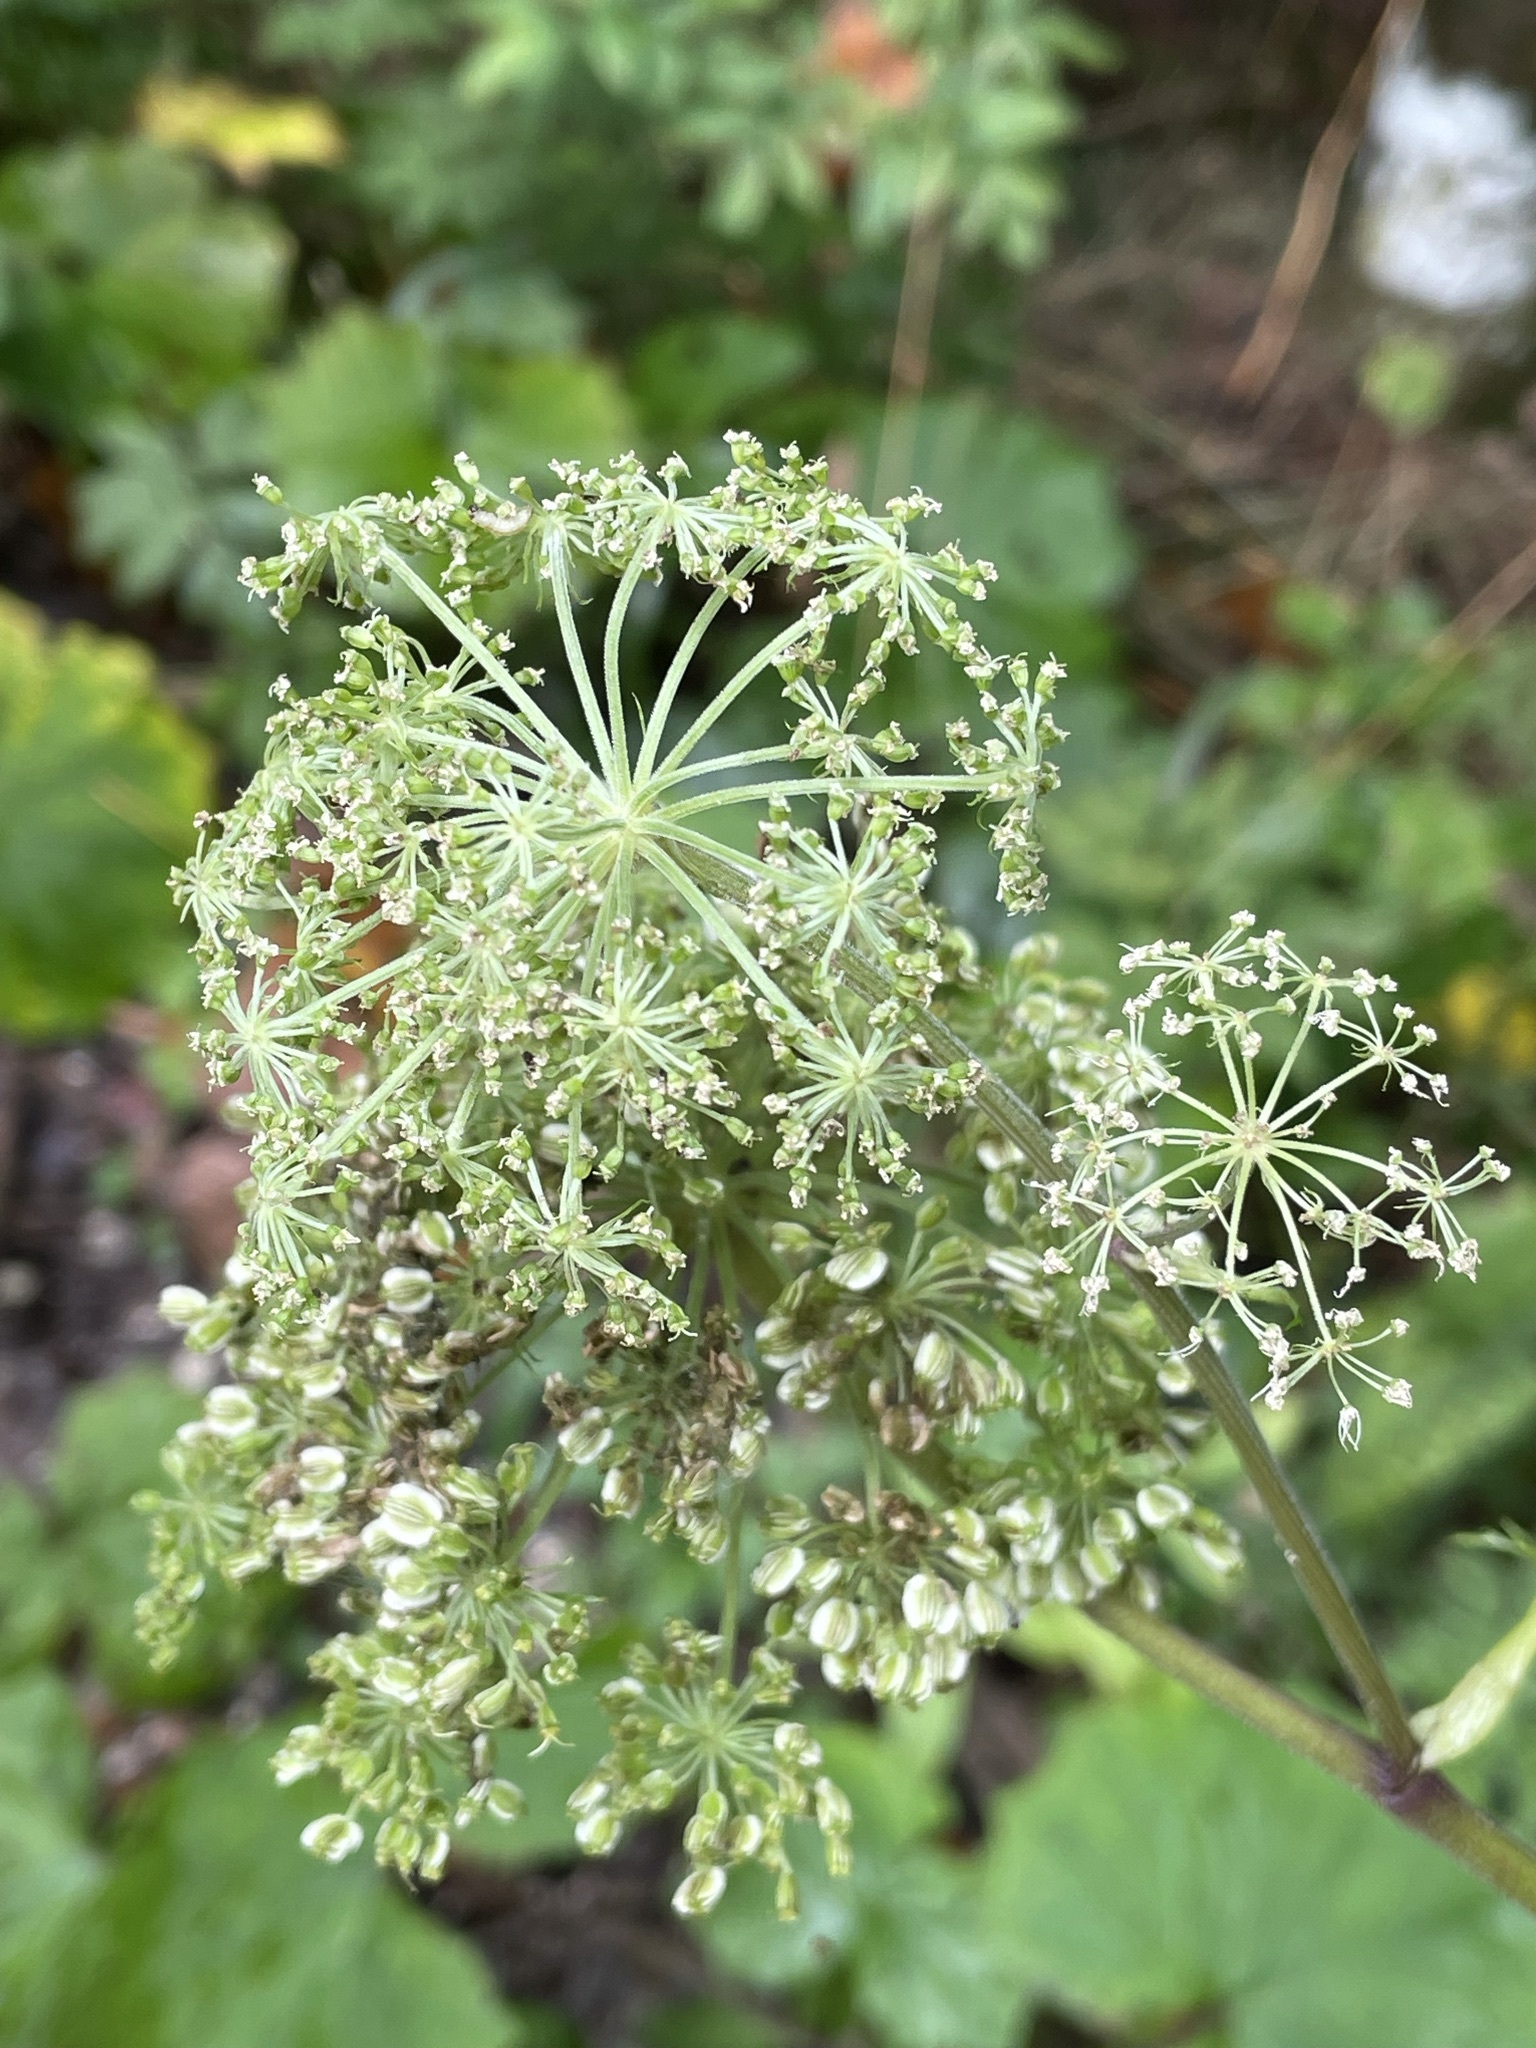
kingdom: Plantae
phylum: Tracheophyta
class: Magnoliopsida
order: Apiales
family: Apiaceae
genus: Angelica
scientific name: Angelica sylvestris
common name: Wild angelica
